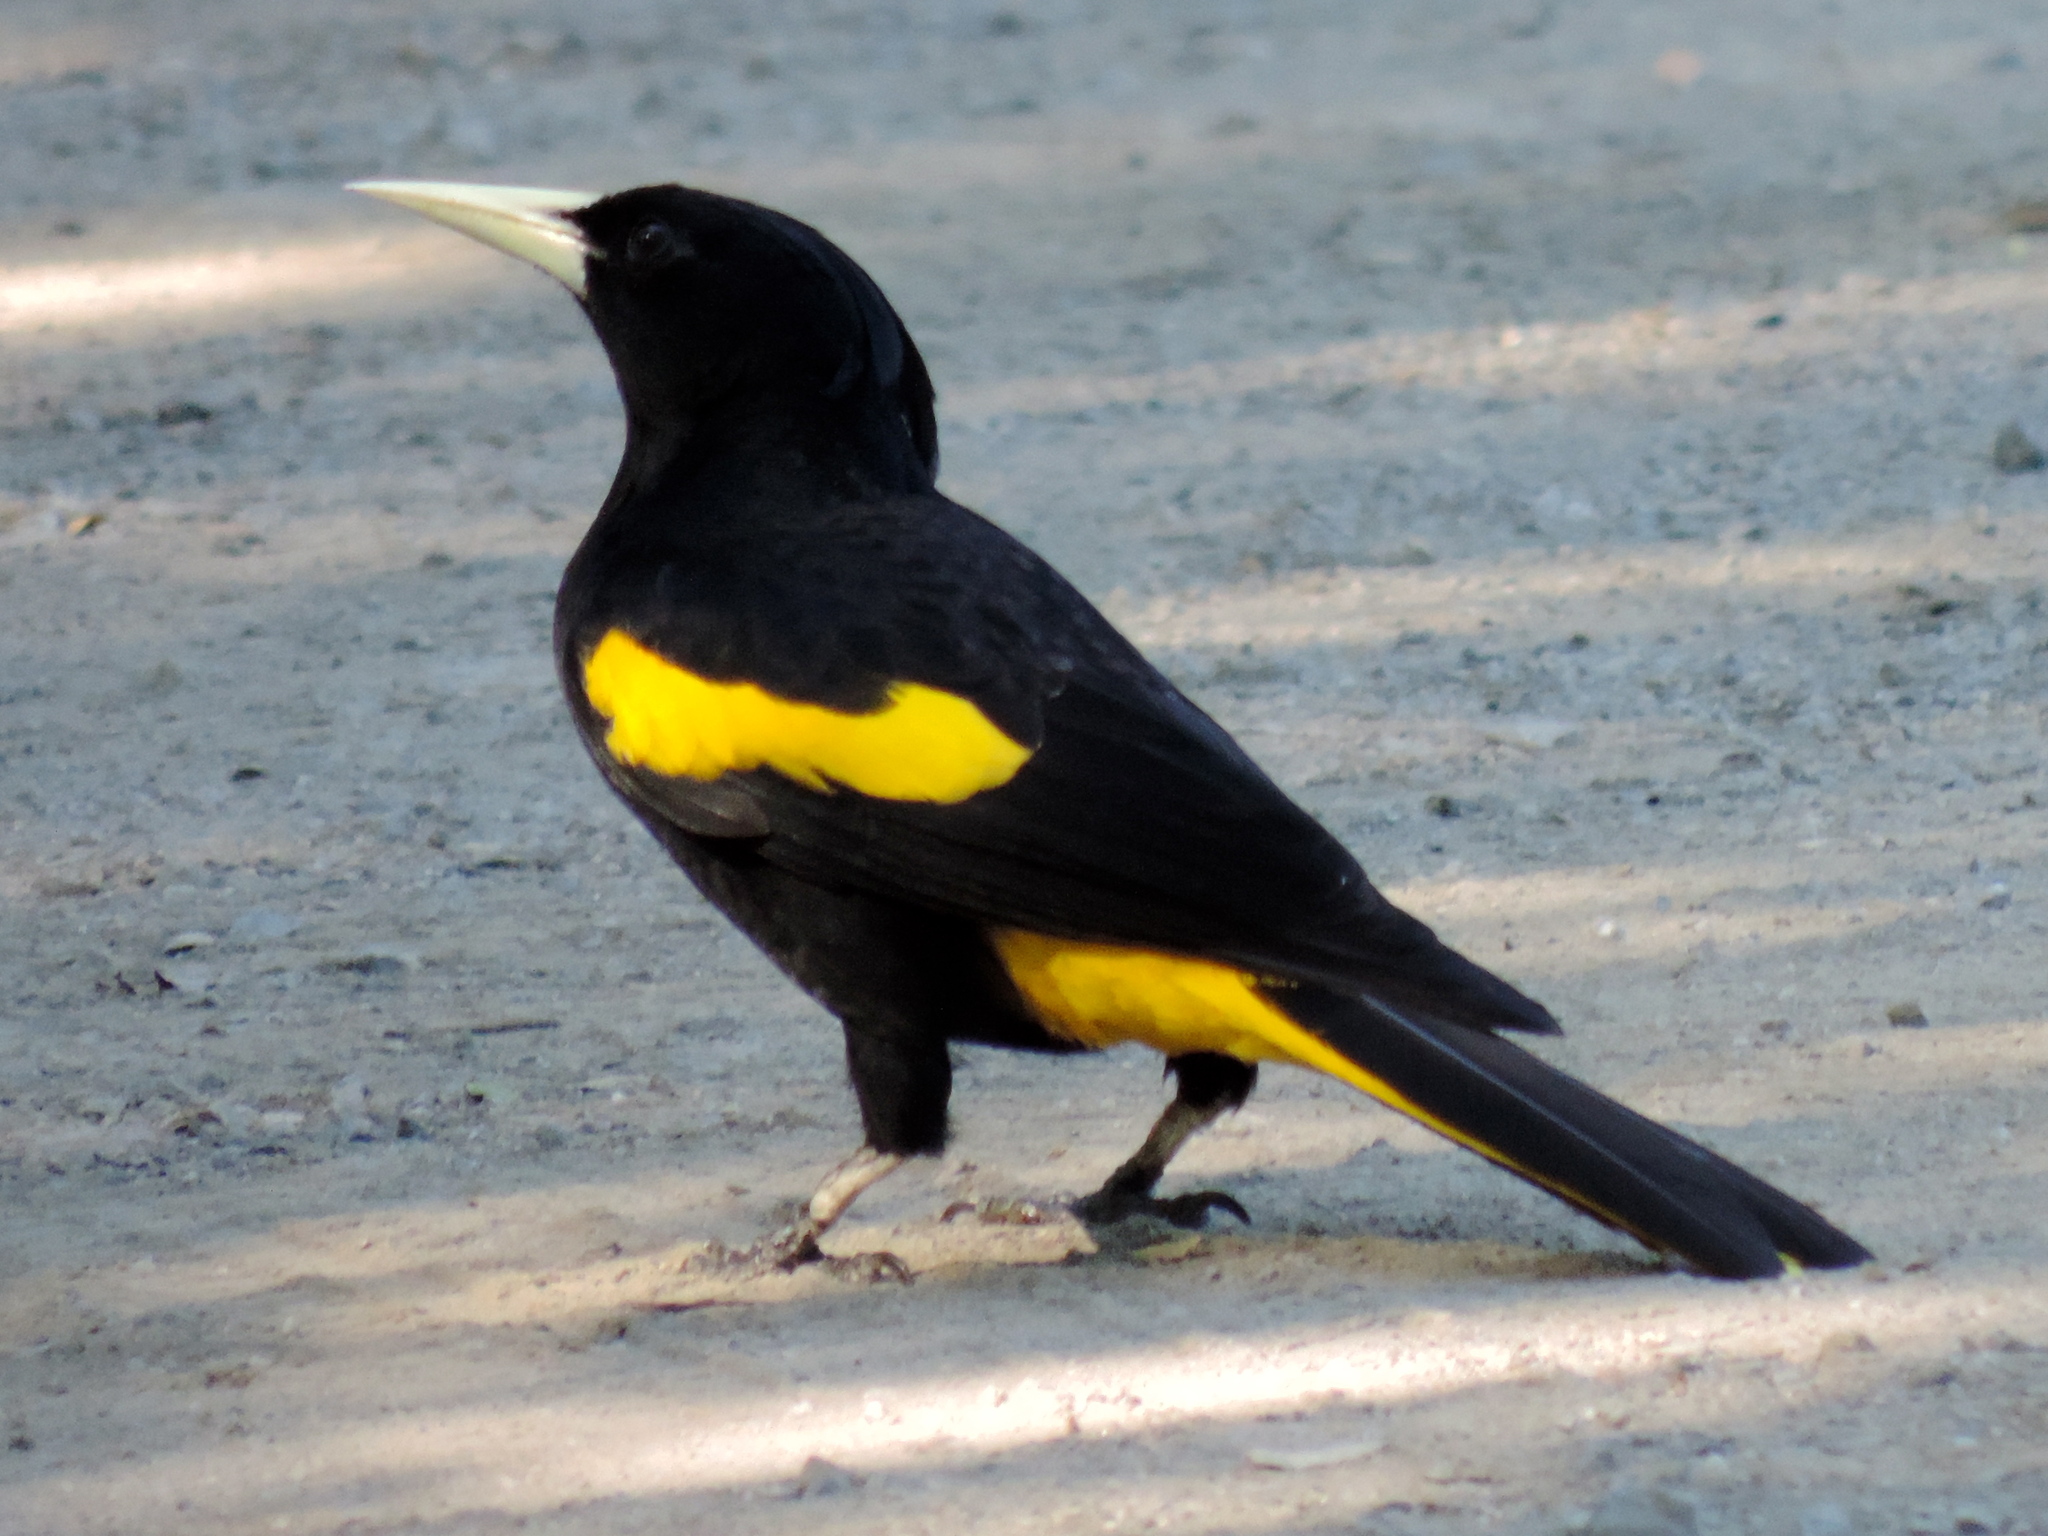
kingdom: Animalia
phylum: Chordata
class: Aves
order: Passeriformes
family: Icteridae
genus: Cacicus
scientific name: Cacicus melanicterus
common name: Yellow-winged cacique
